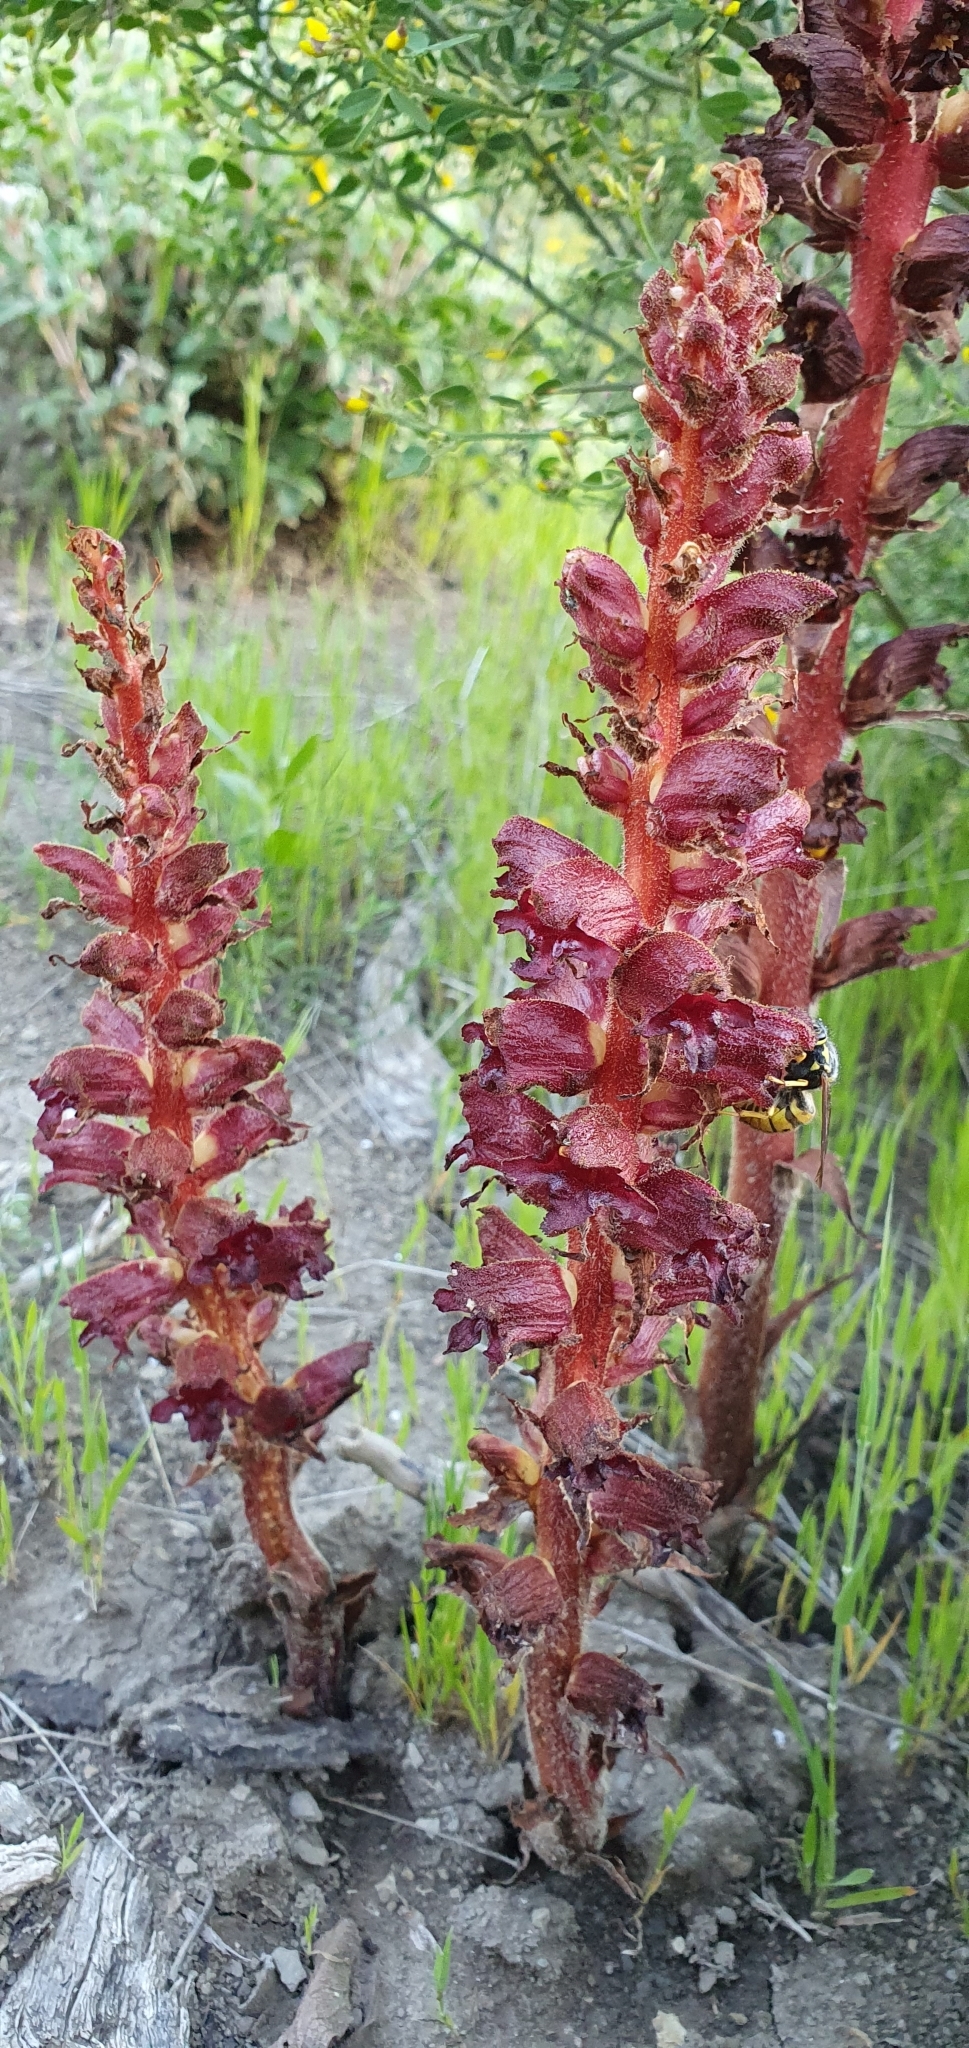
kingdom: Plantae
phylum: Tracheophyta
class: Magnoliopsida
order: Lamiales
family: Orobanchaceae
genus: Orobanche
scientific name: Orobanche variegata
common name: Variegated broomrape
